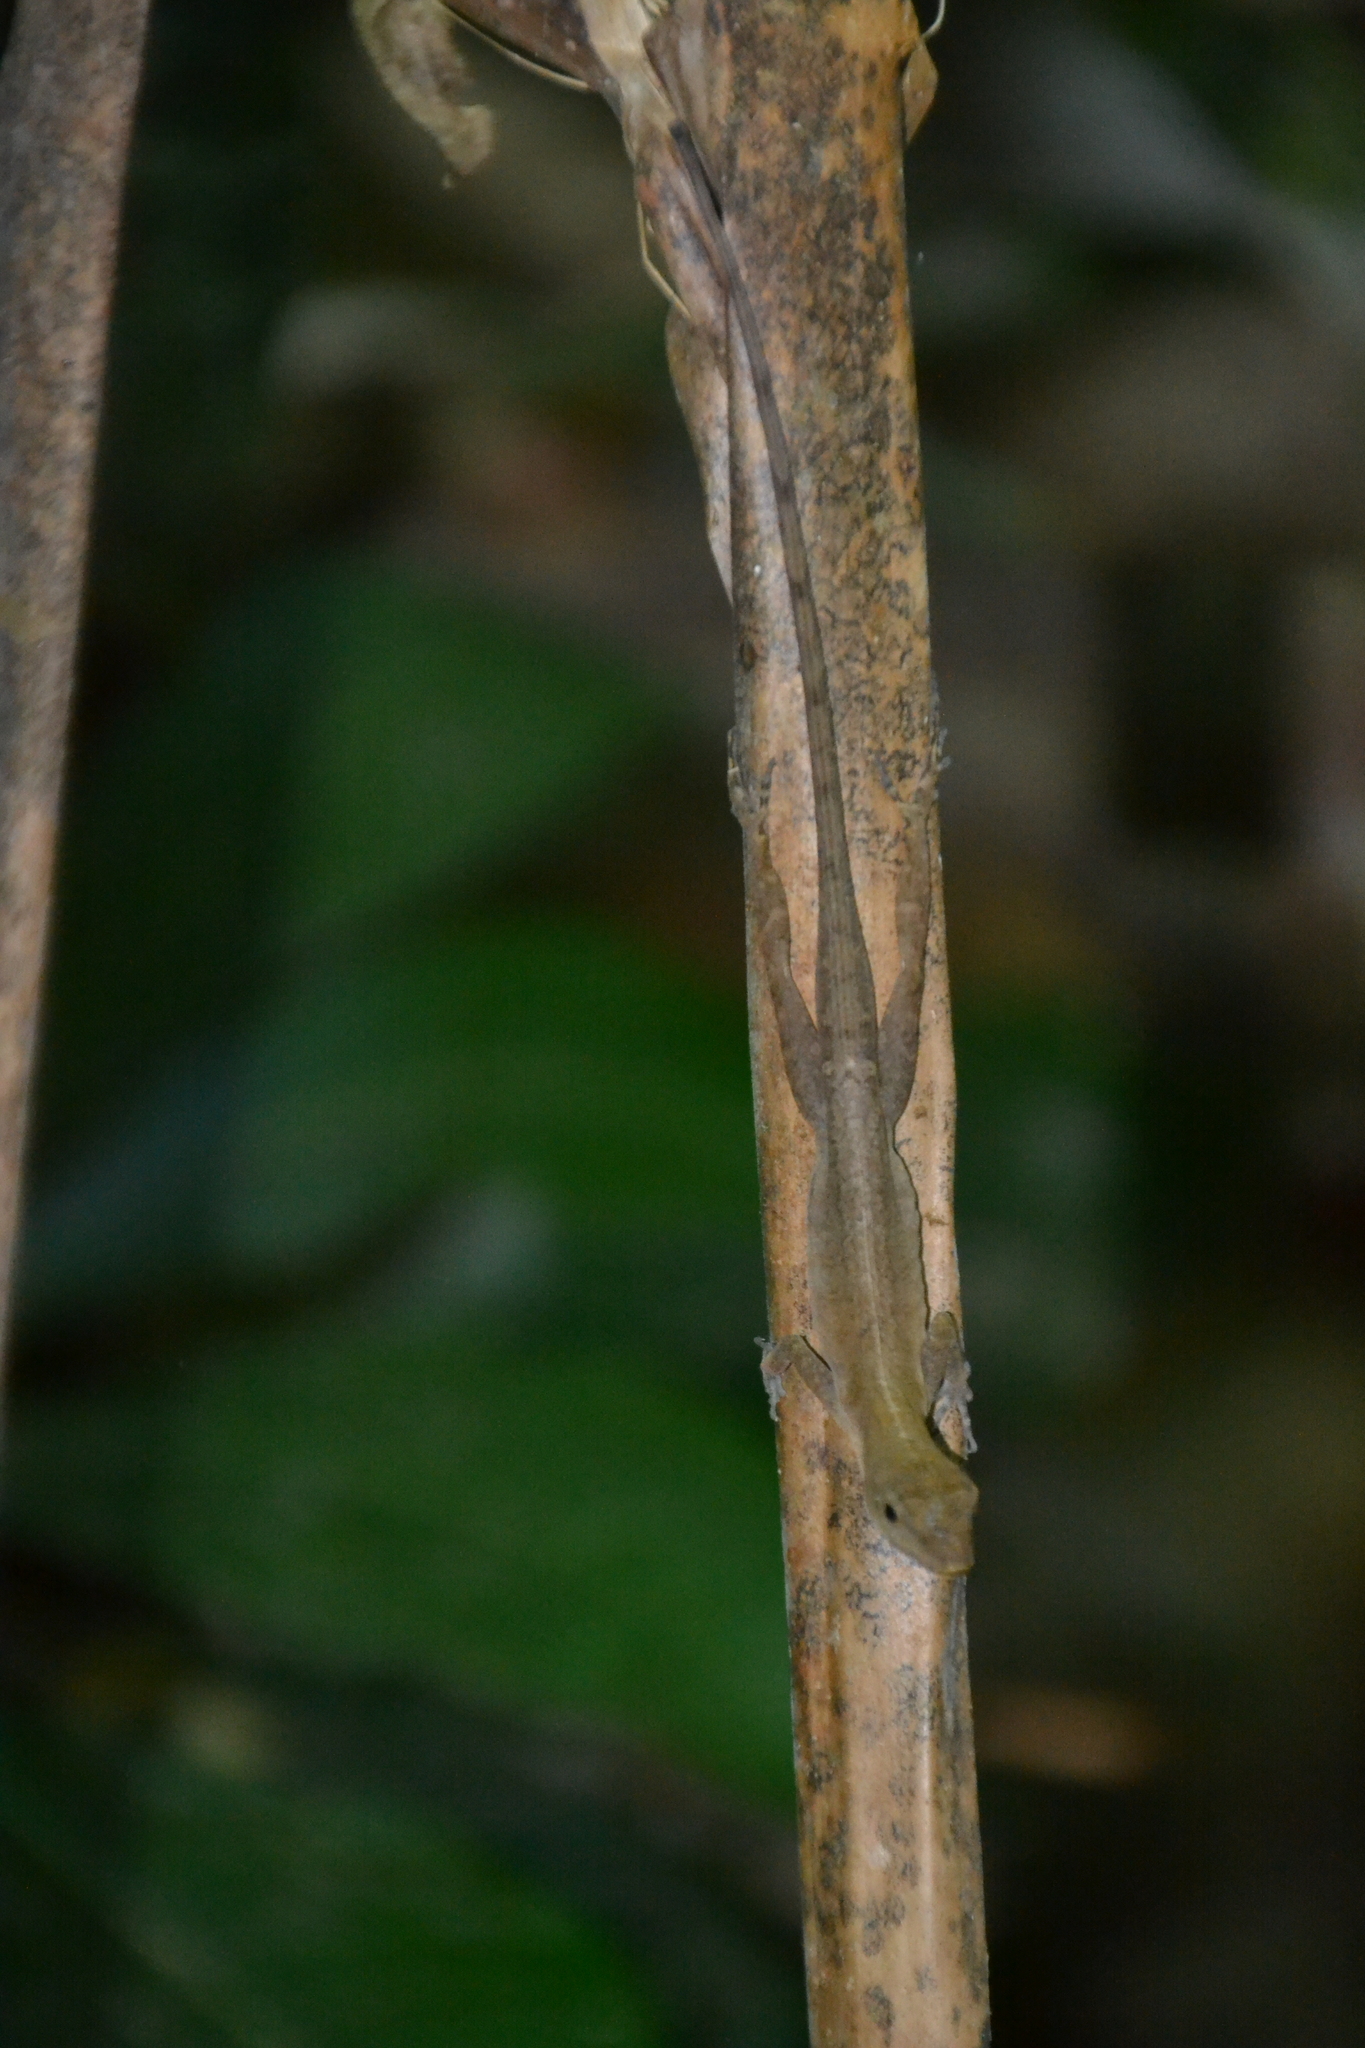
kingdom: Animalia
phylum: Chordata
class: Squamata
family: Dactyloidae
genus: Anolis
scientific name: Anolis limifrons
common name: Border anole
